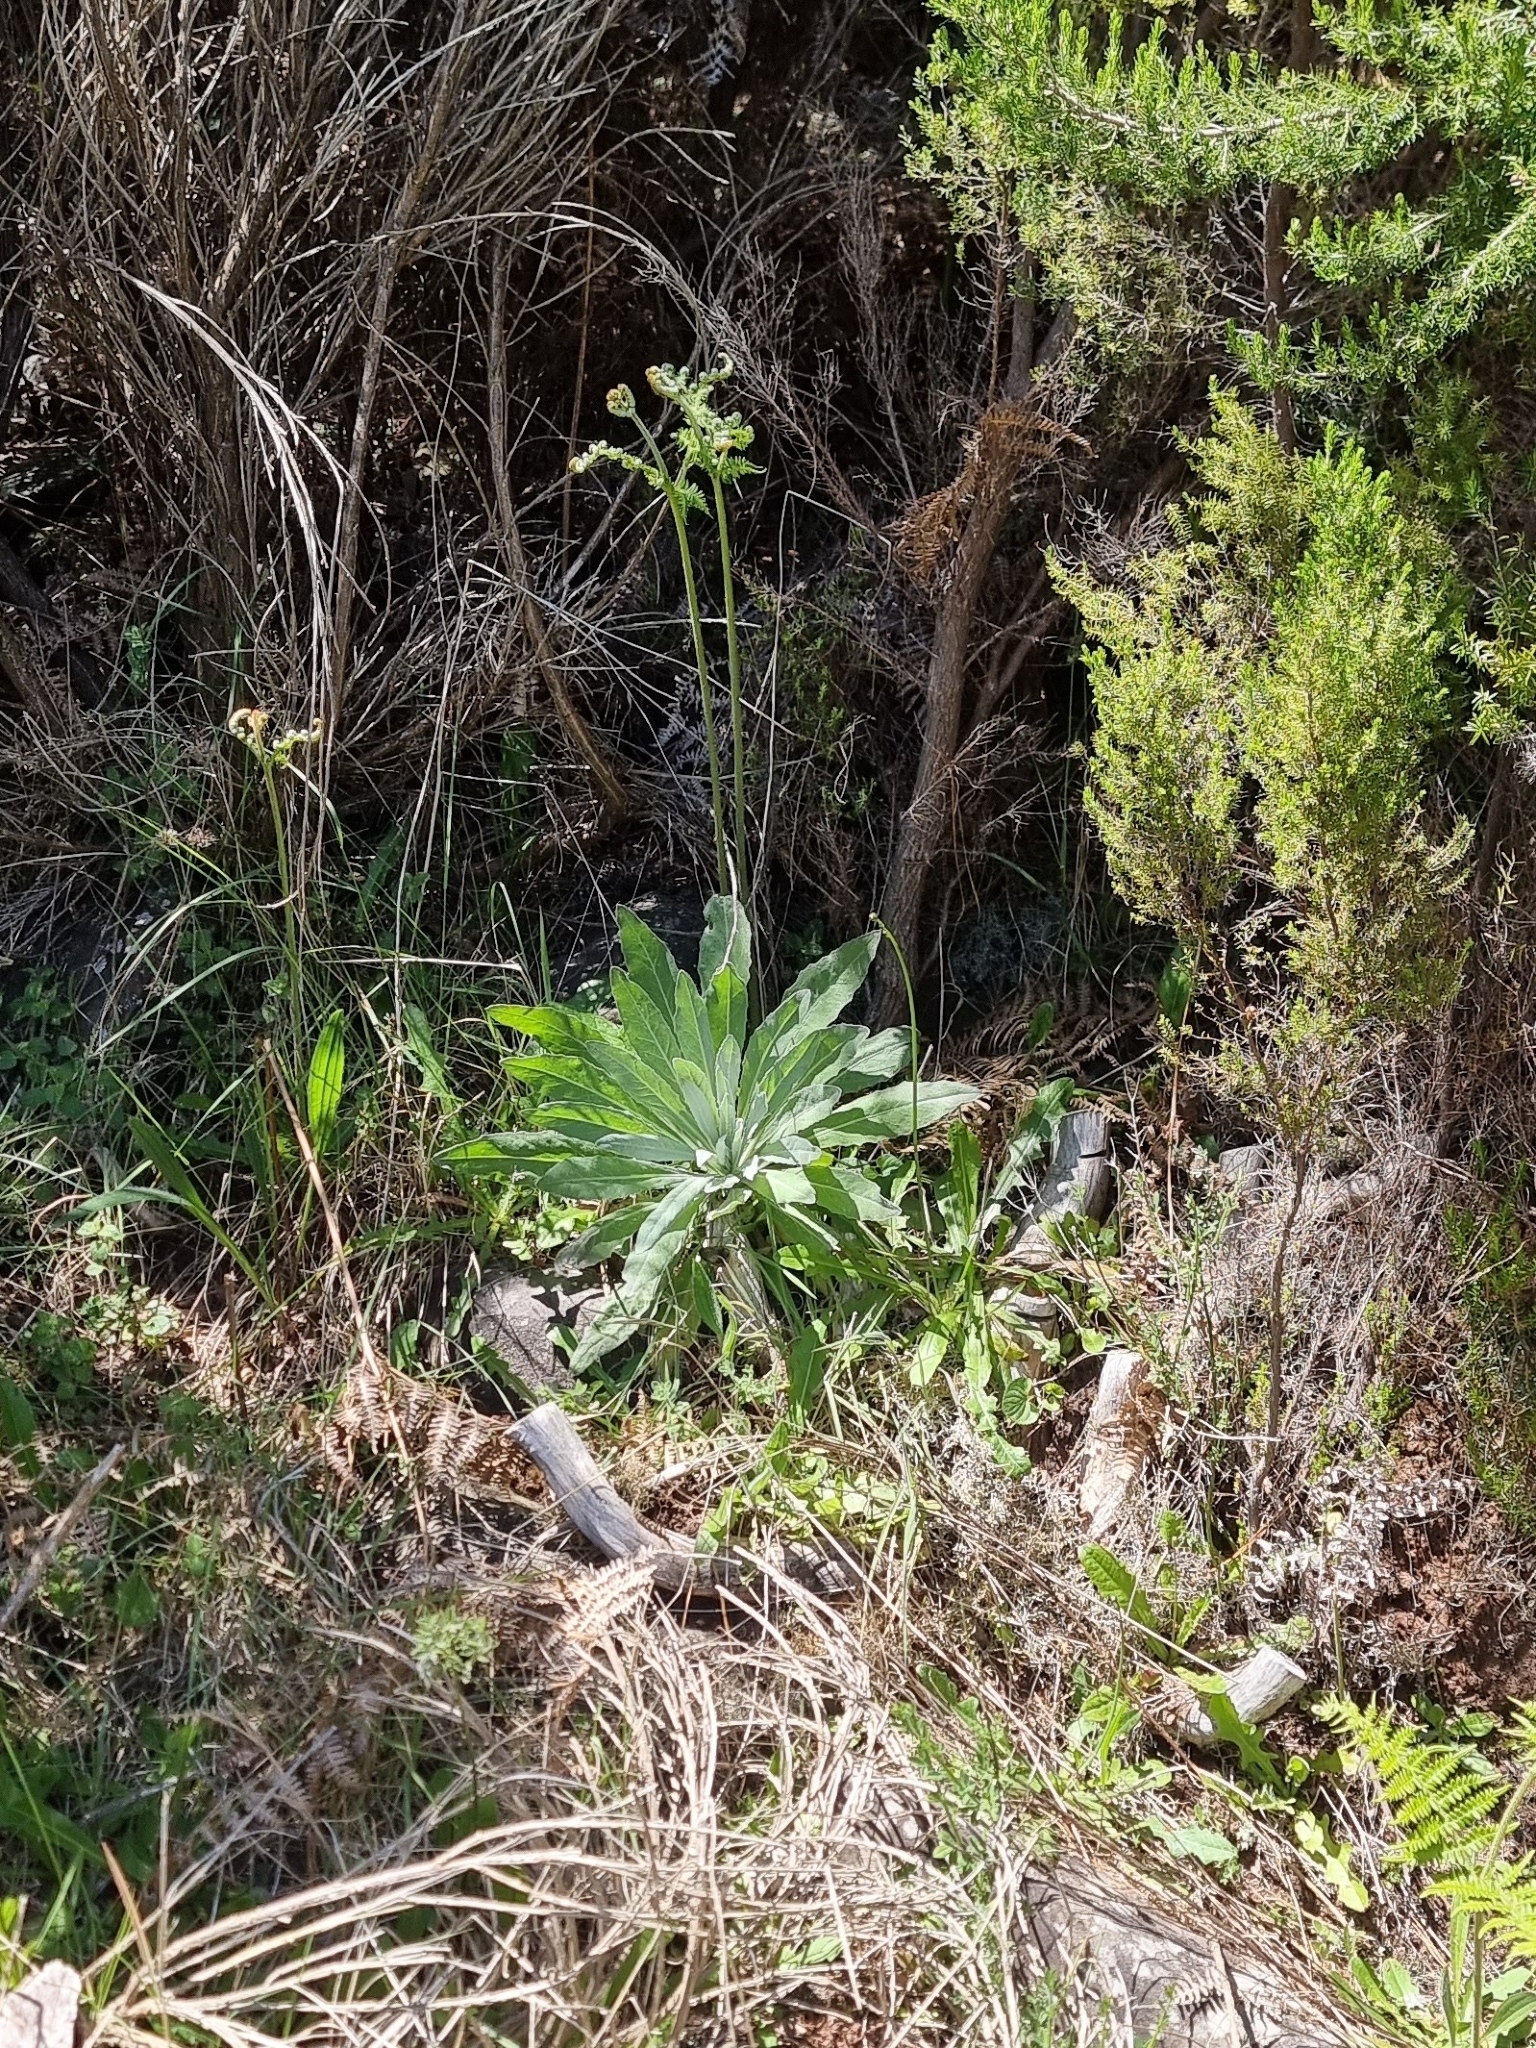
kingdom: Plantae
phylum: Tracheophyta
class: Magnoliopsida
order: Asterales
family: Asteraceae
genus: Andryala
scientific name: Andryala glandulosa
